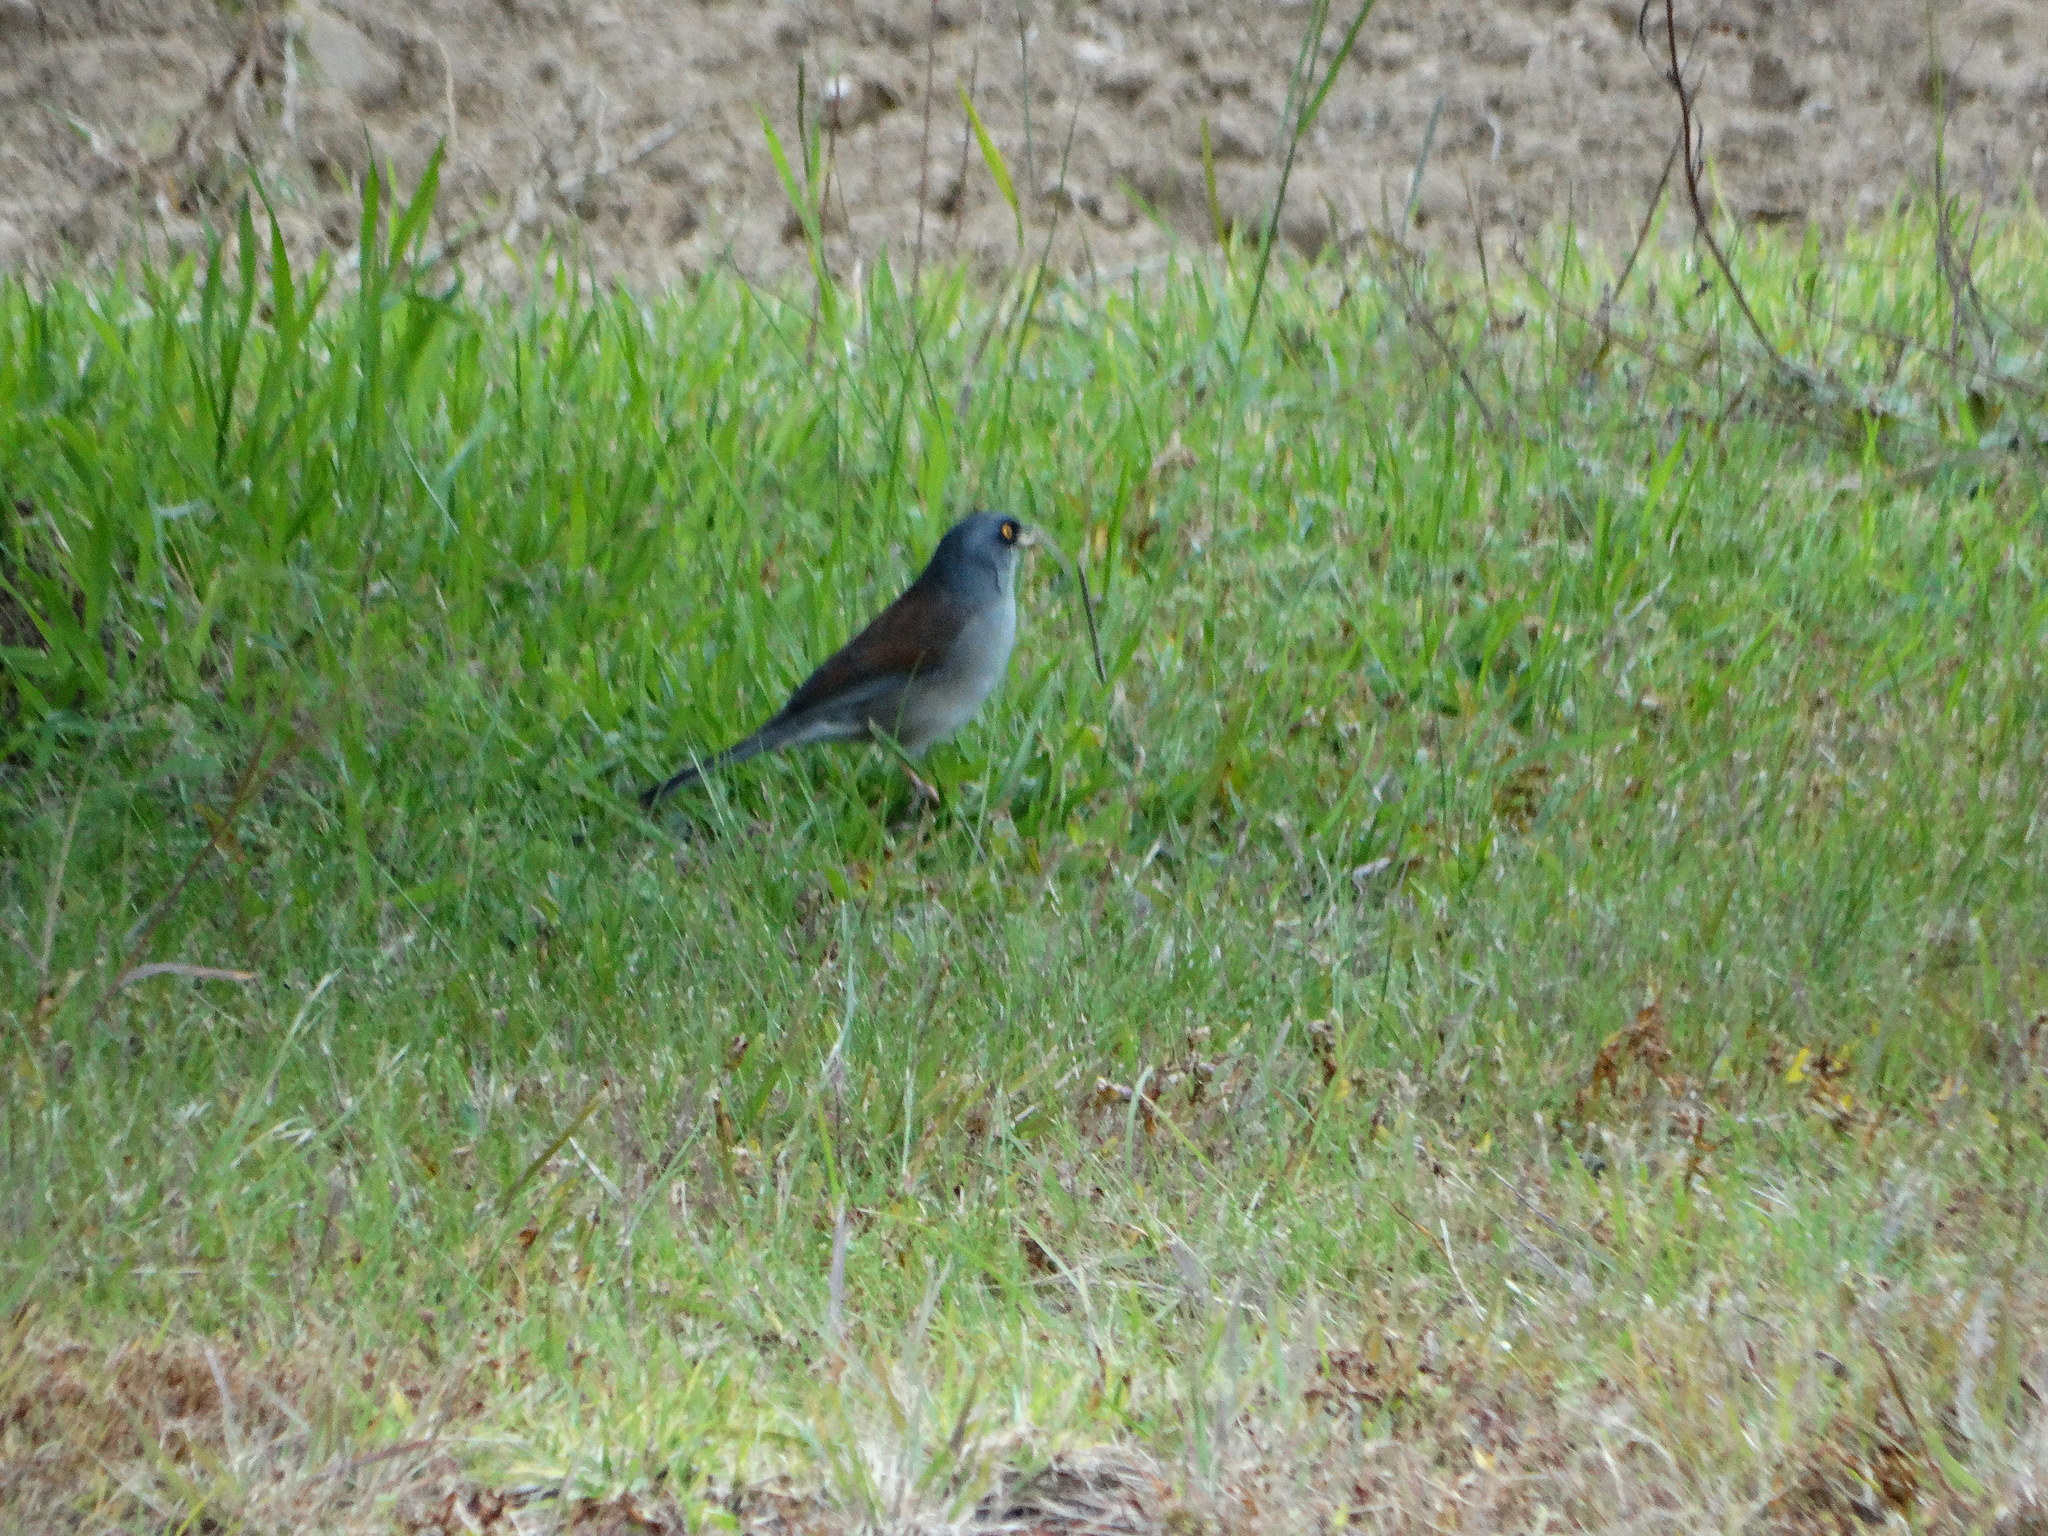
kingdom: Animalia
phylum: Chordata
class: Aves
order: Passeriformes
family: Passerellidae
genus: Junco
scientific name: Junco phaeonotus
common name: Yellow-eyed junco
